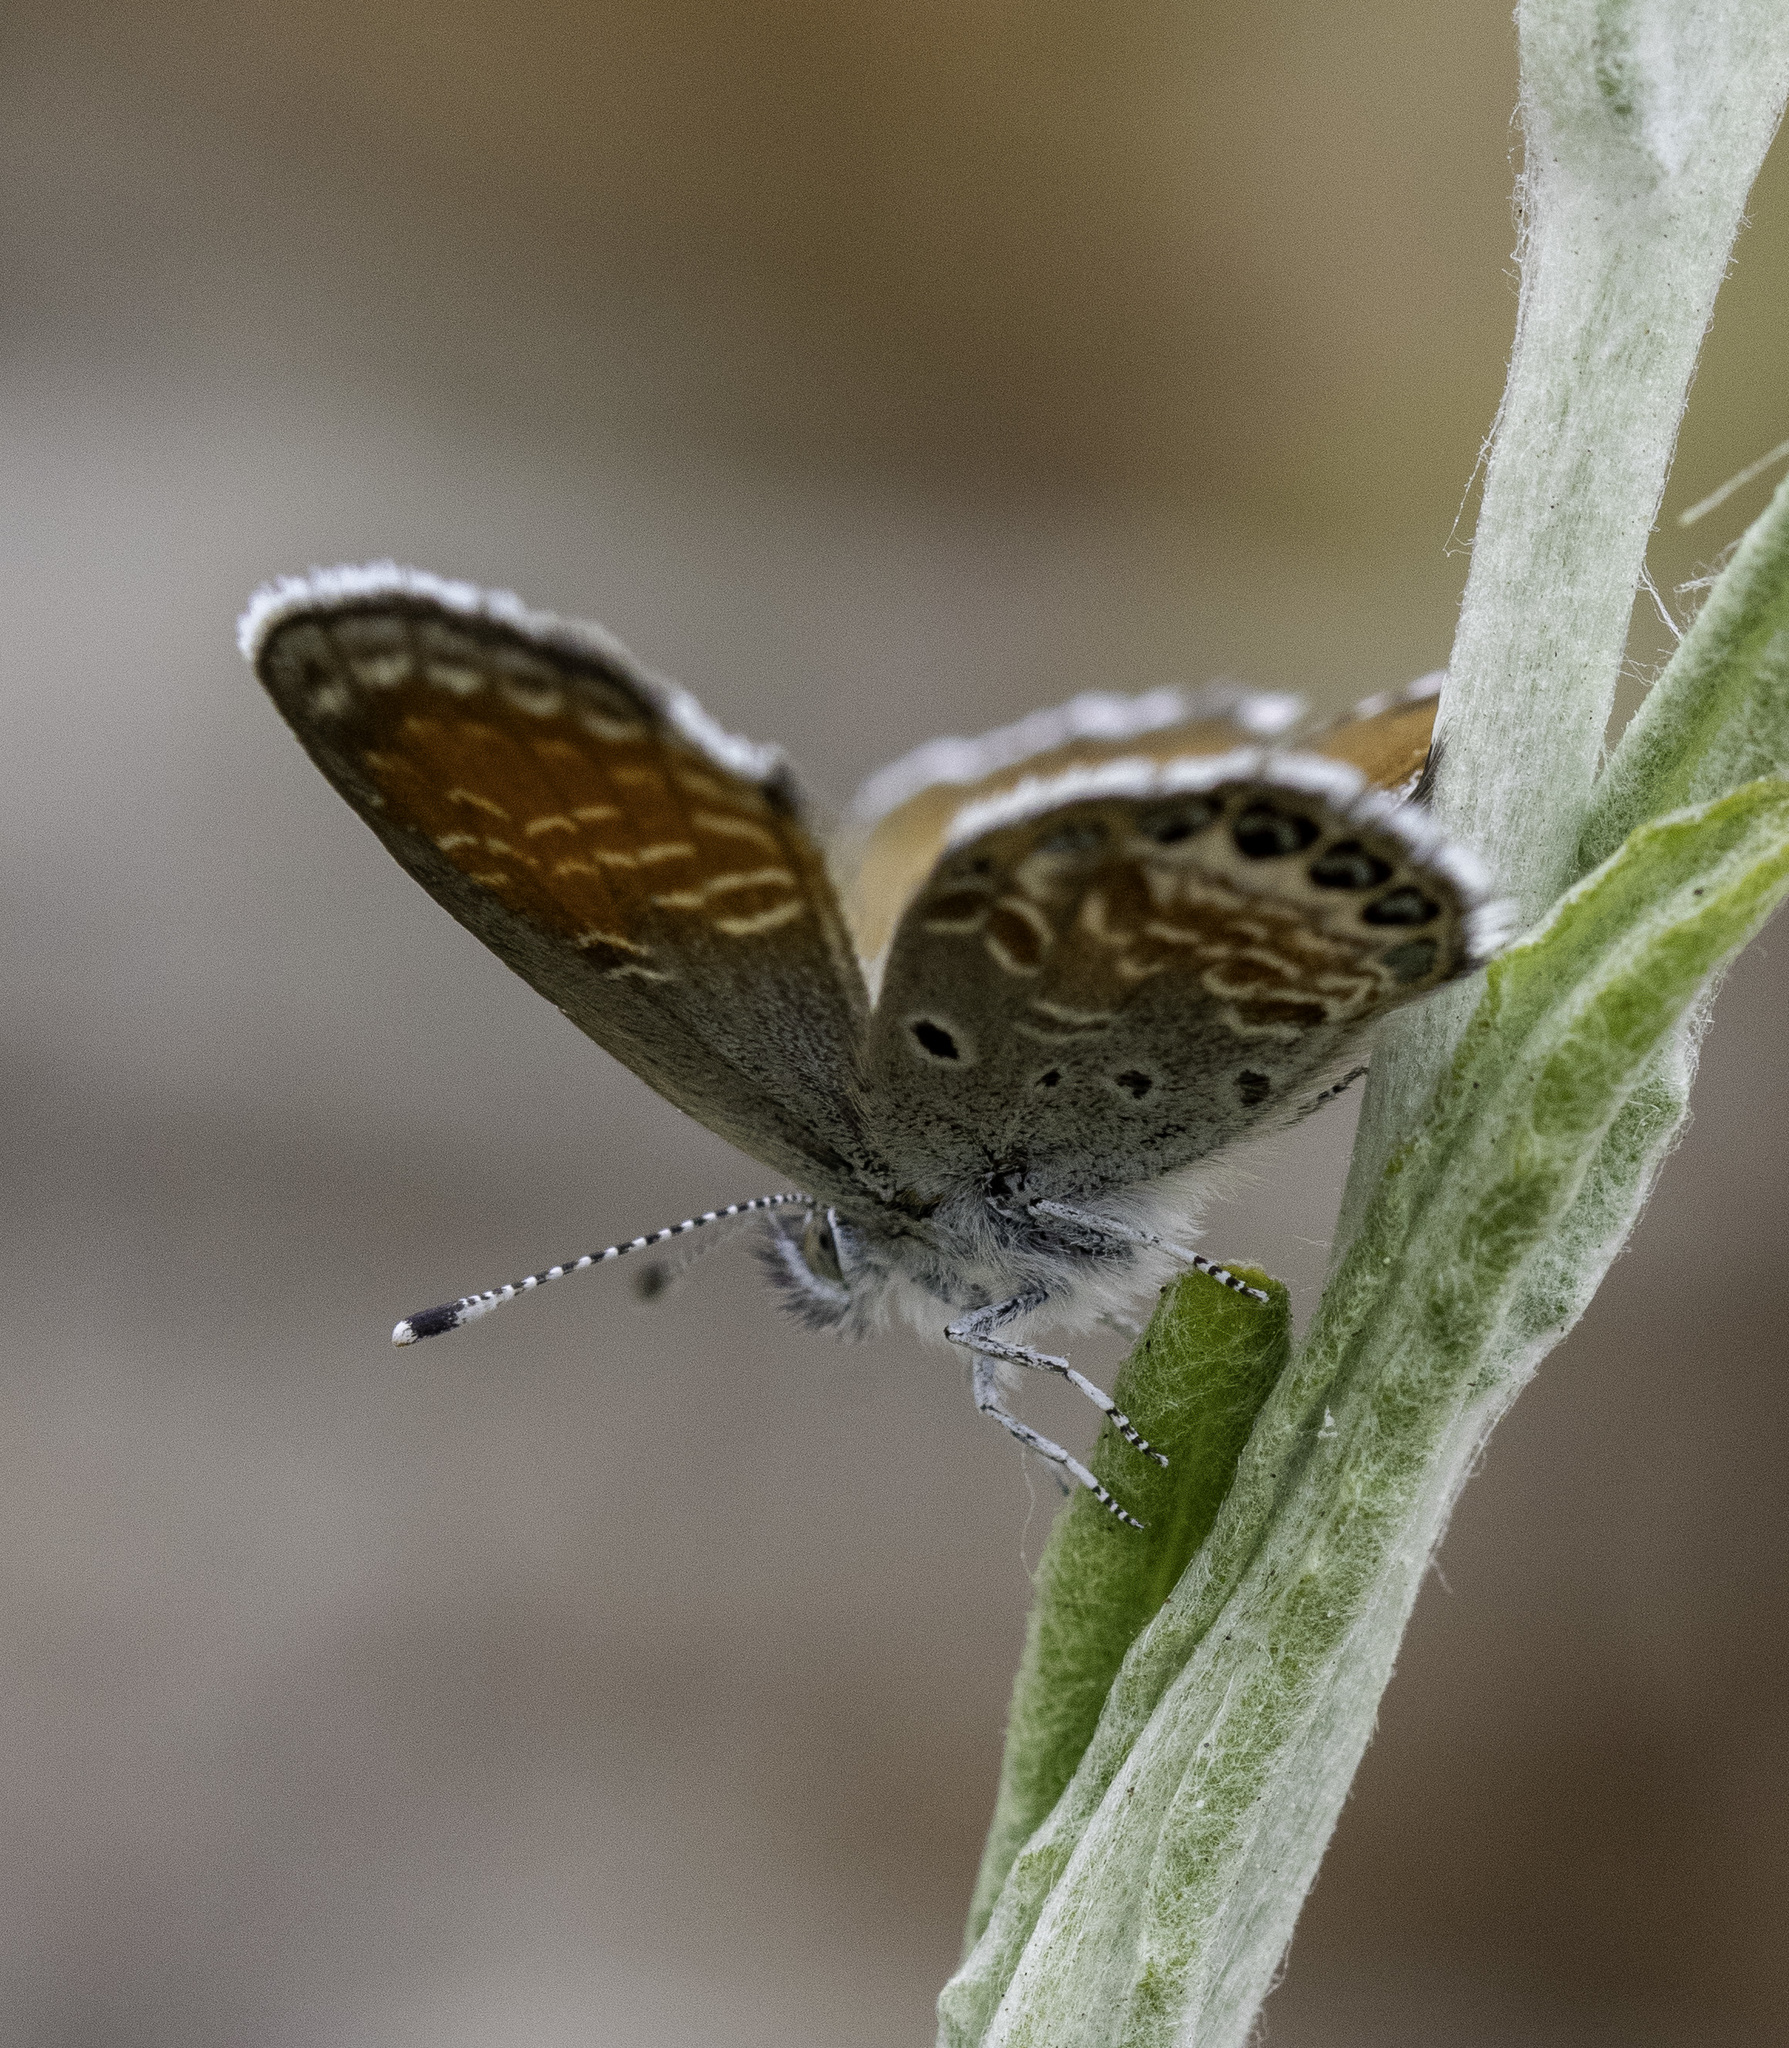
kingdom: Animalia
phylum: Arthropoda
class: Insecta
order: Lepidoptera
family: Lycaenidae
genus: Brephidium
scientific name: Brephidium exilis
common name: Pygmy blue
